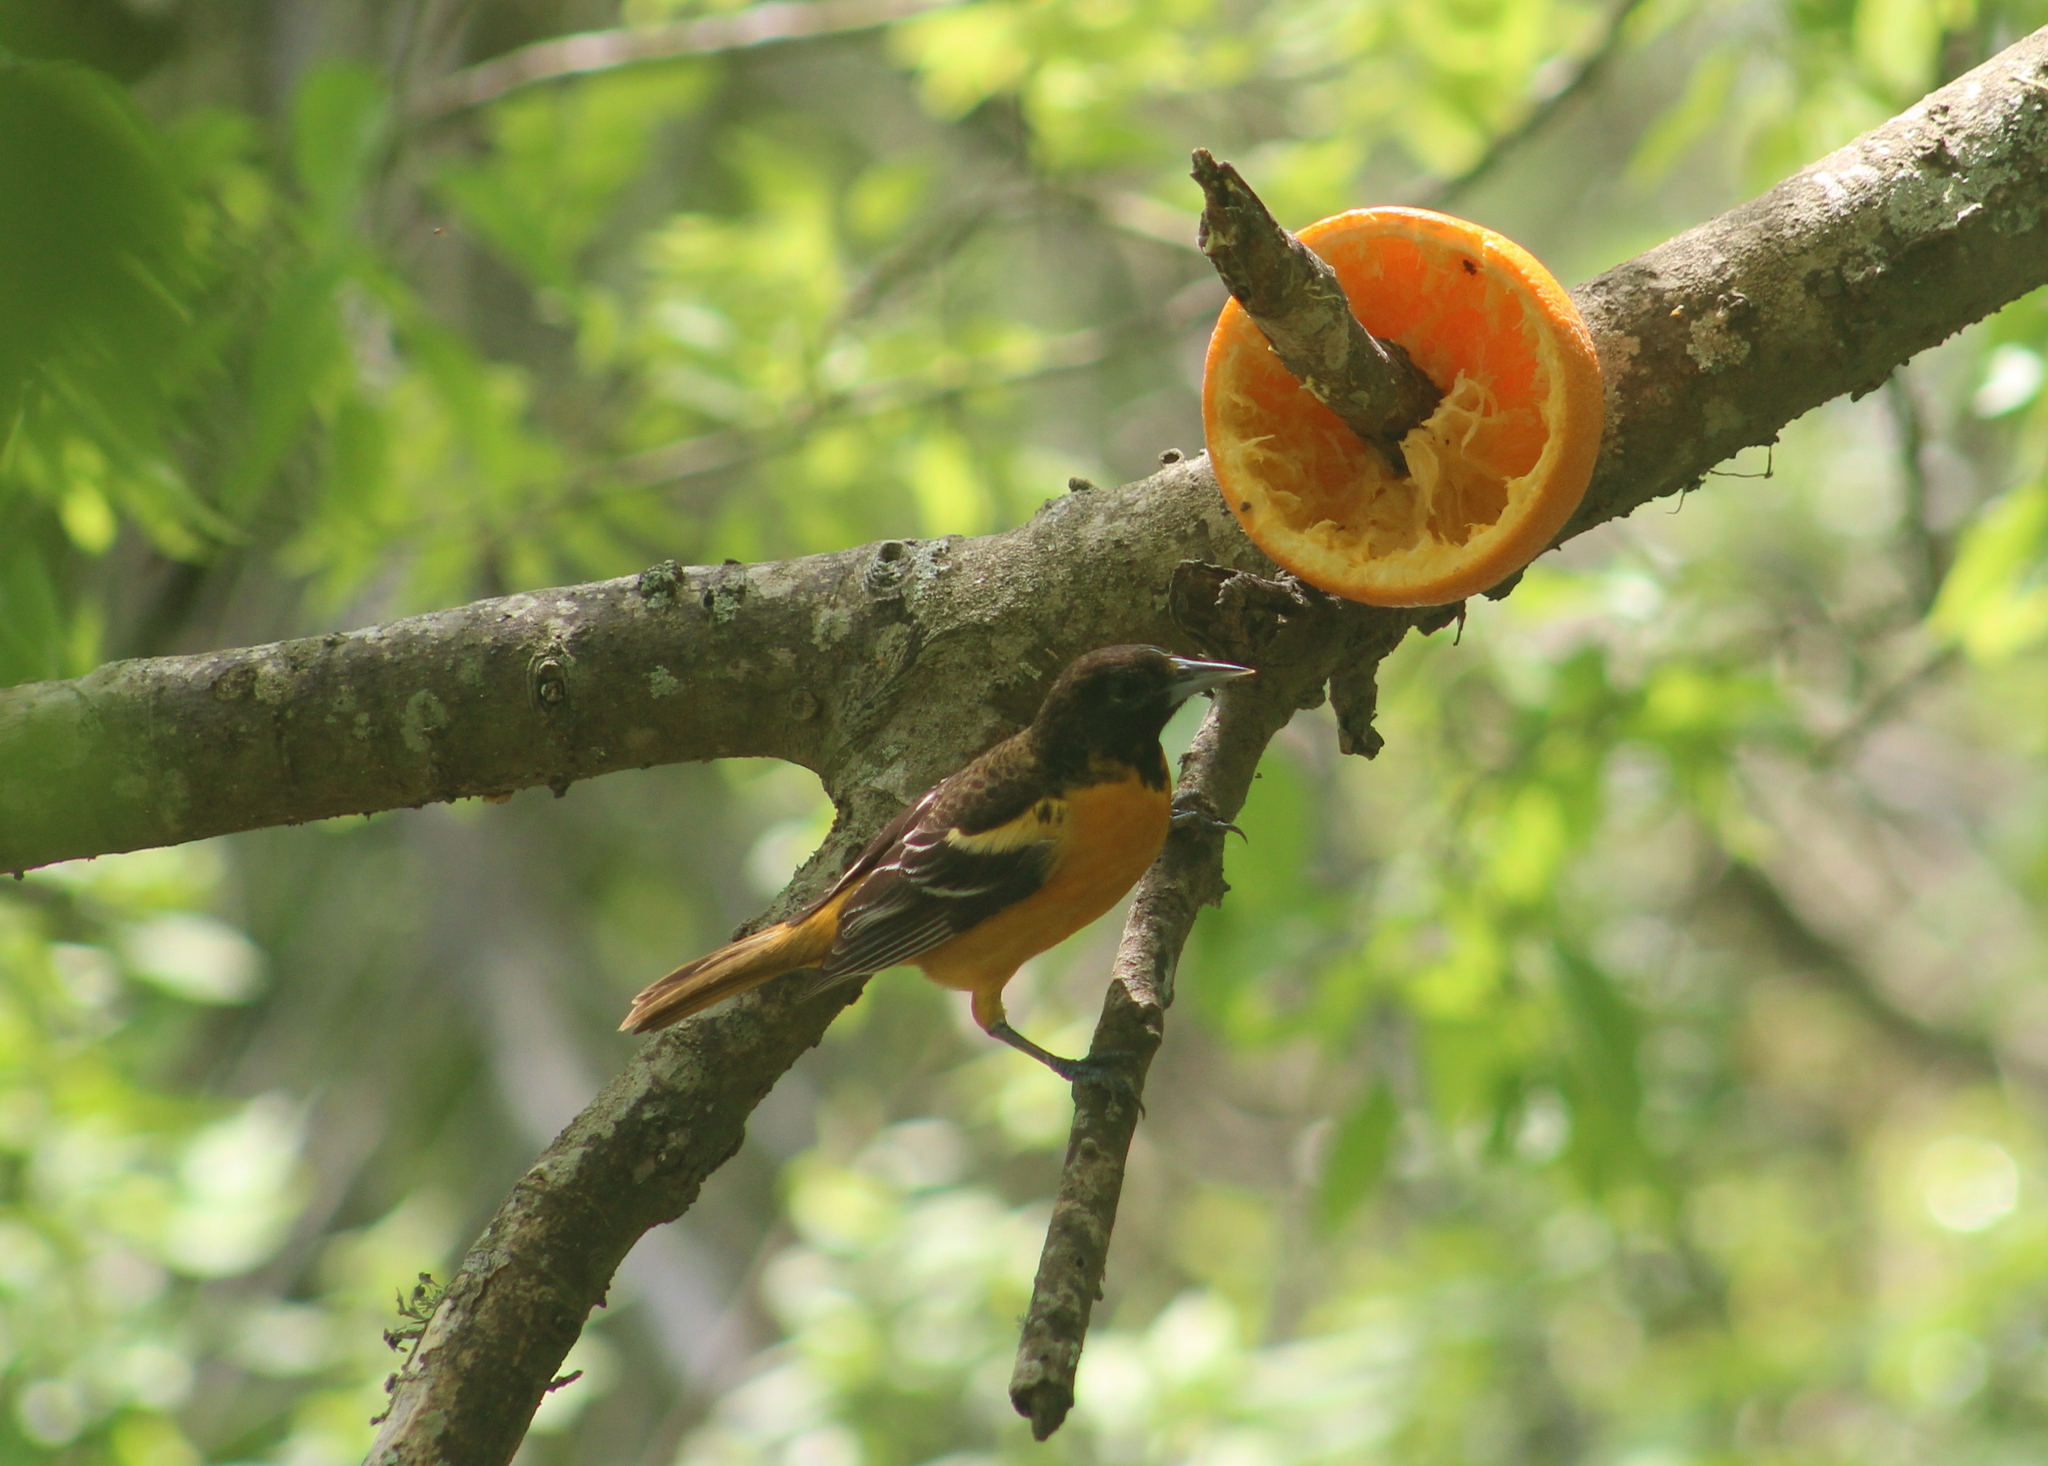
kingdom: Animalia
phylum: Chordata
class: Aves
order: Passeriformes
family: Icteridae
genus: Icterus
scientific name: Icterus galbula
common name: Baltimore oriole
